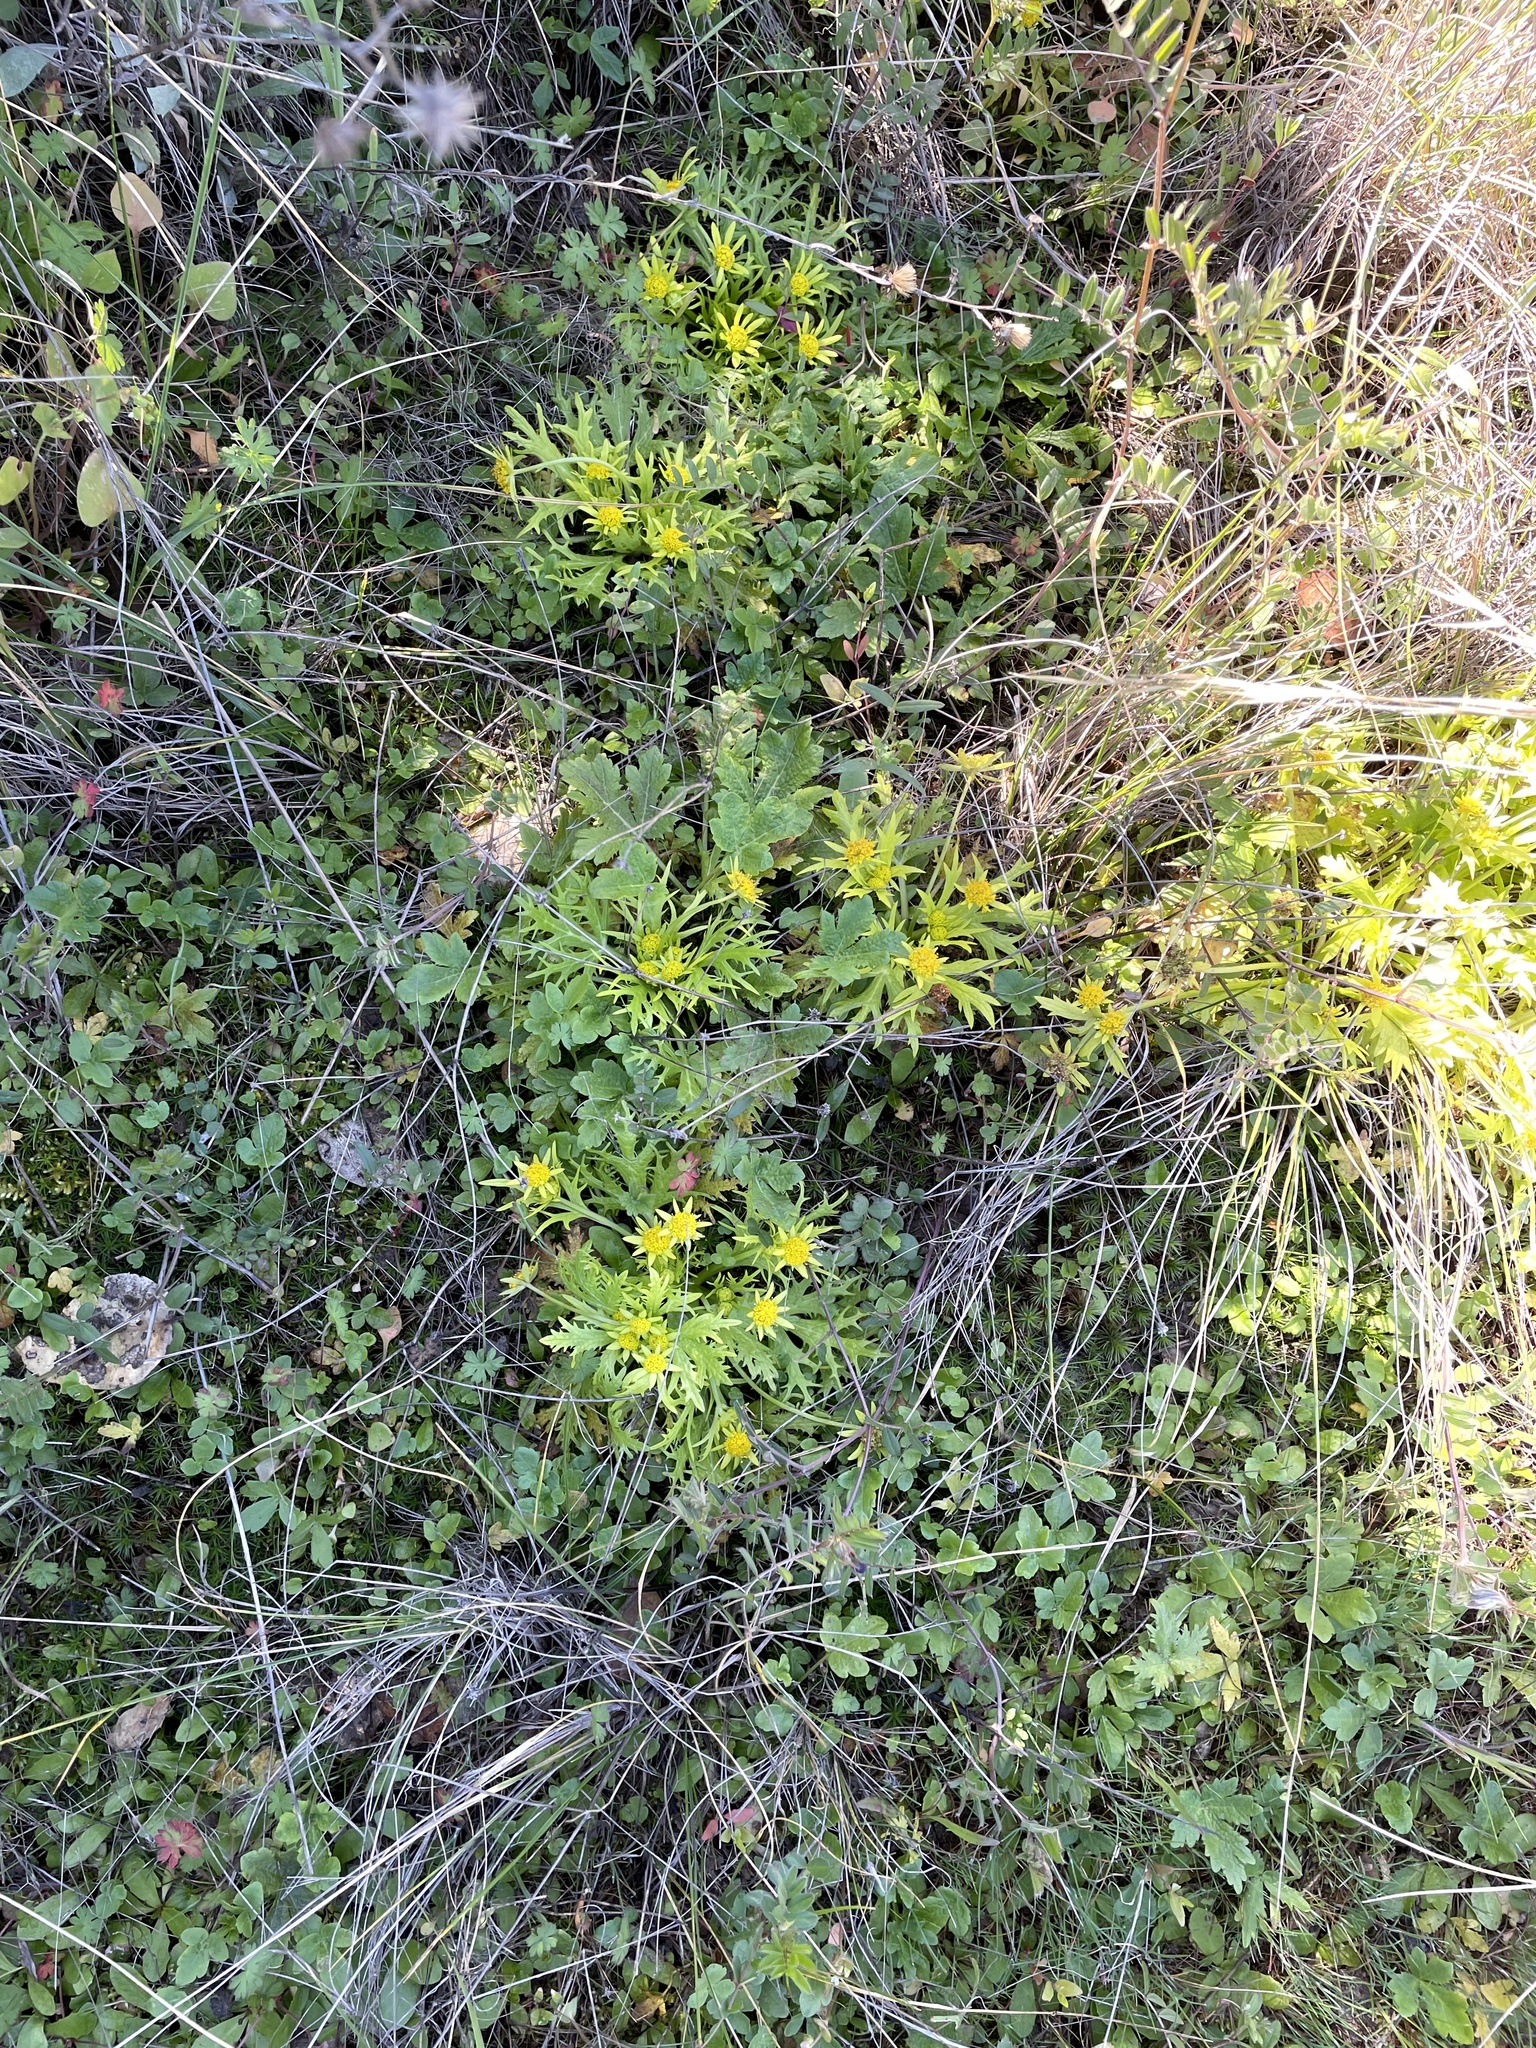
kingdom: Plantae
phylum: Tracheophyta
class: Magnoliopsida
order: Apiales
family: Apiaceae
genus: Sanicula
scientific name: Sanicula arctopoides
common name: Footsteps-of-spring
